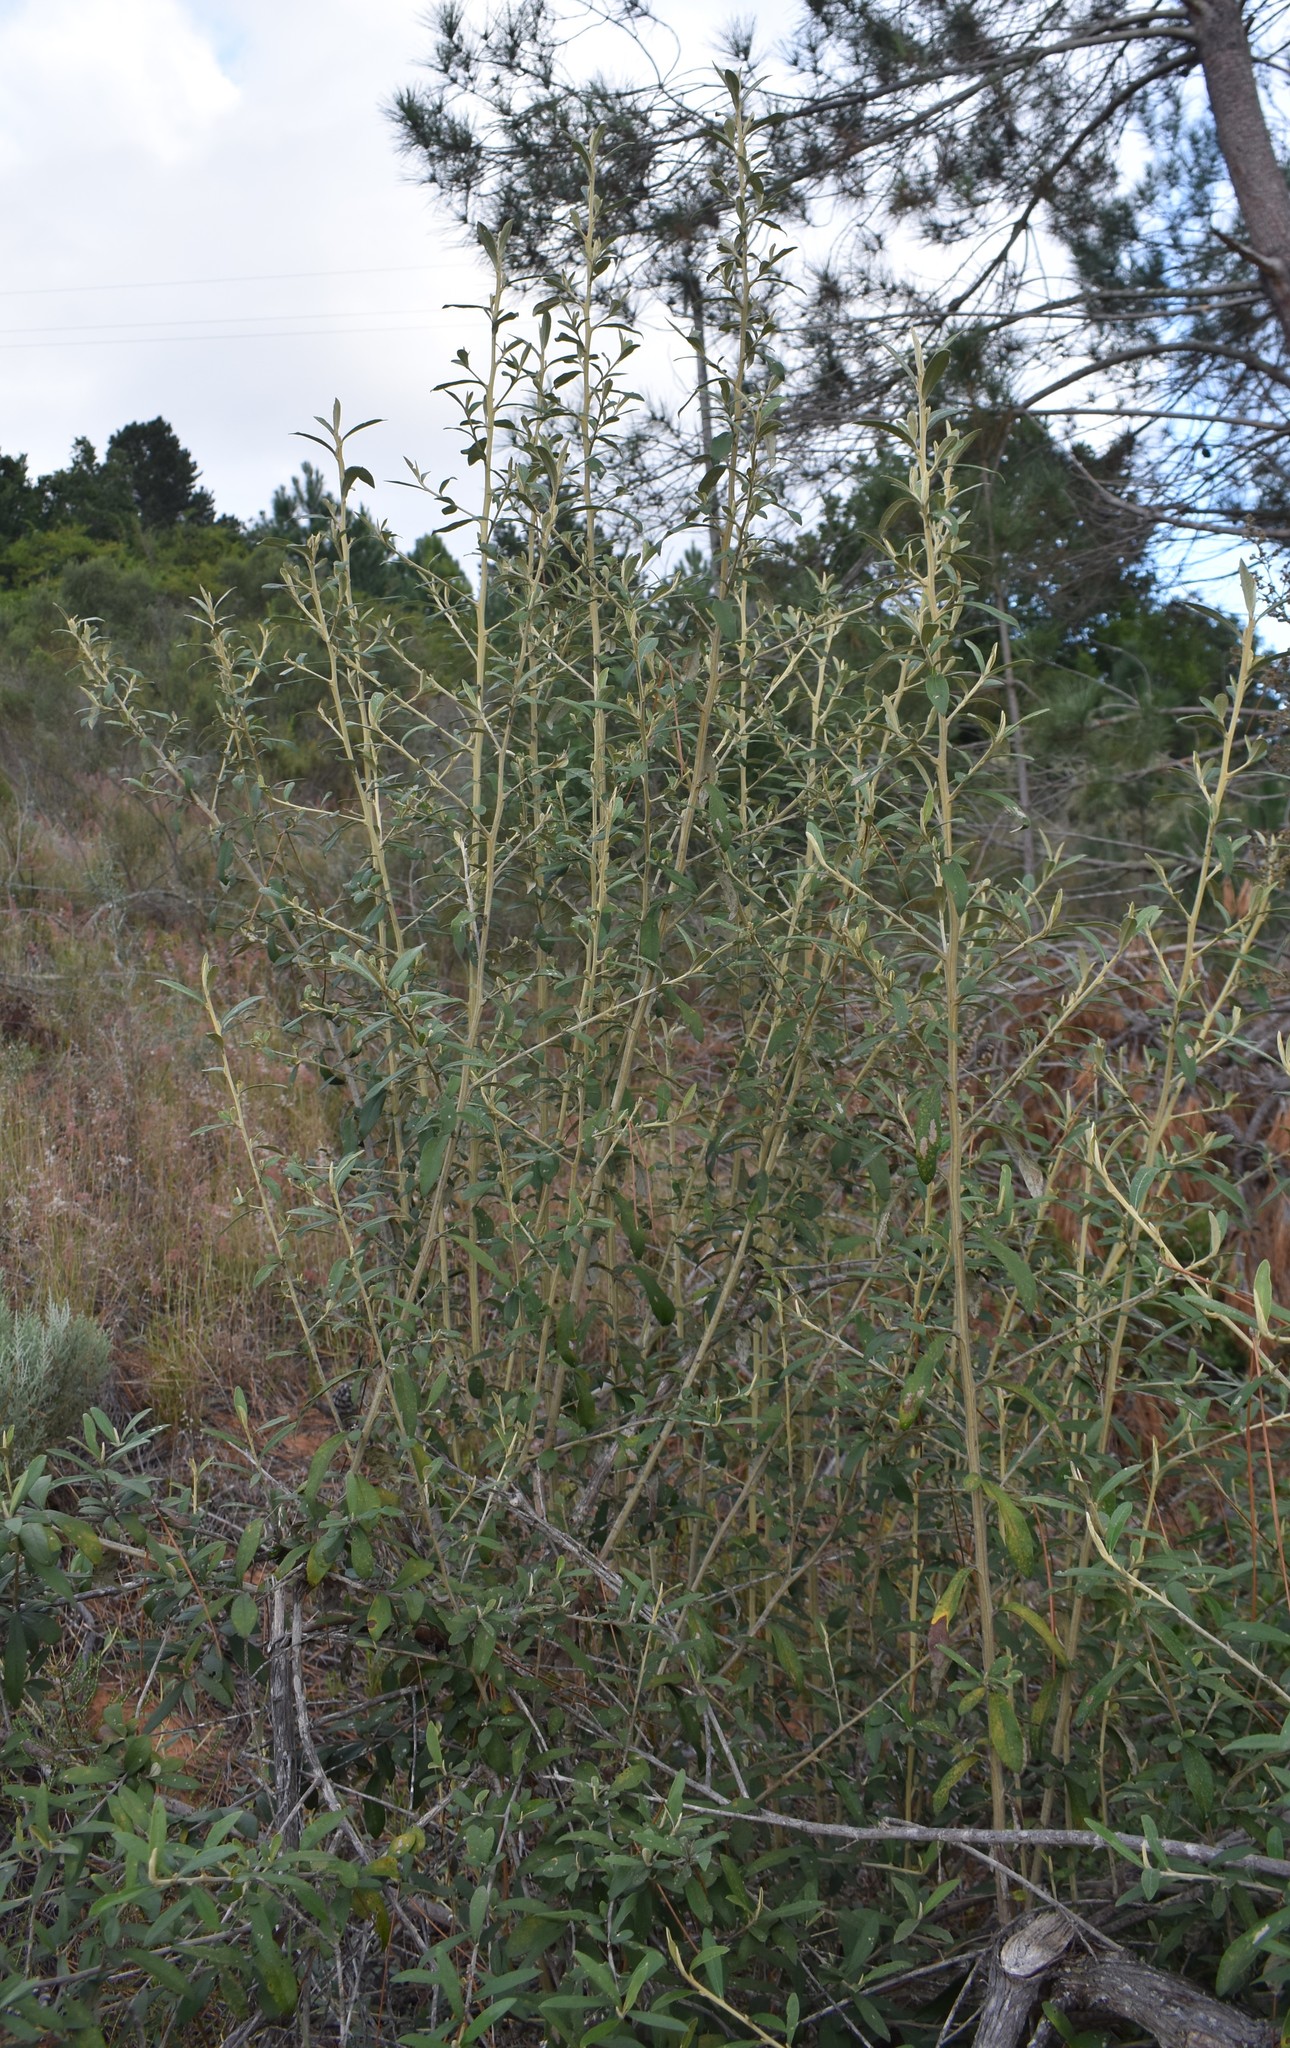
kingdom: Plantae
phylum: Tracheophyta
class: Magnoliopsida
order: Asterales
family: Asteraceae
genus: Tarchonanthus
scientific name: Tarchonanthus littoralis
